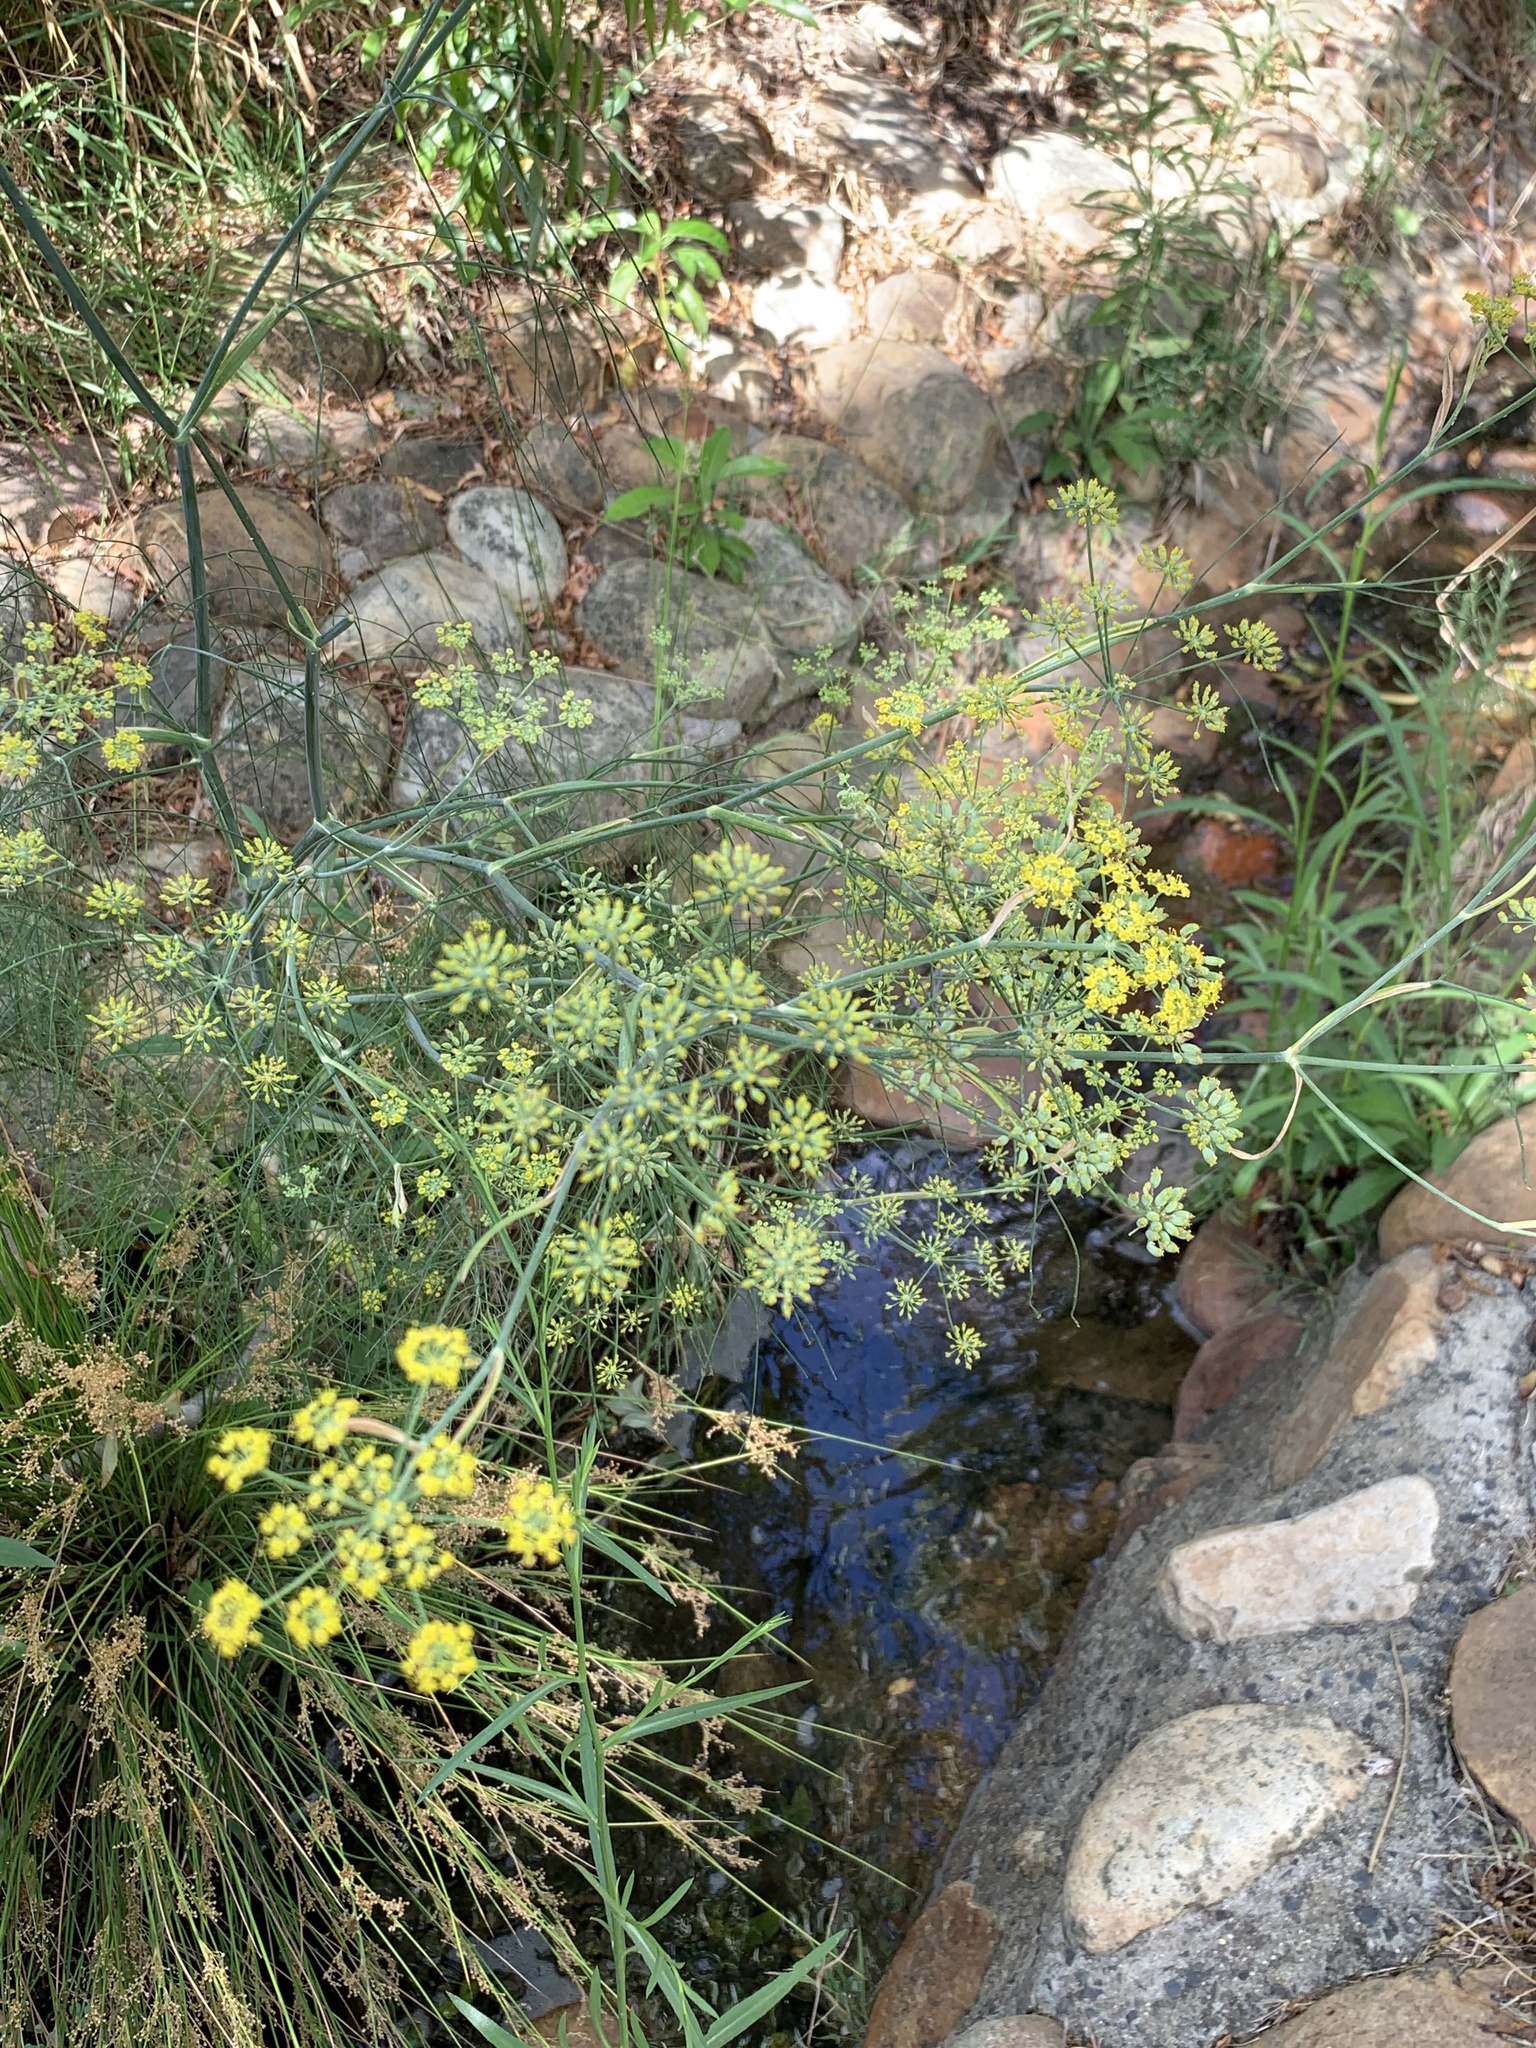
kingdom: Plantae
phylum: Tracheophyta
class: Magnoliopsida
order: Apiales
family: Apiaceae
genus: Foeniculum
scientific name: Foeniculum vulgare
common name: Fennel
